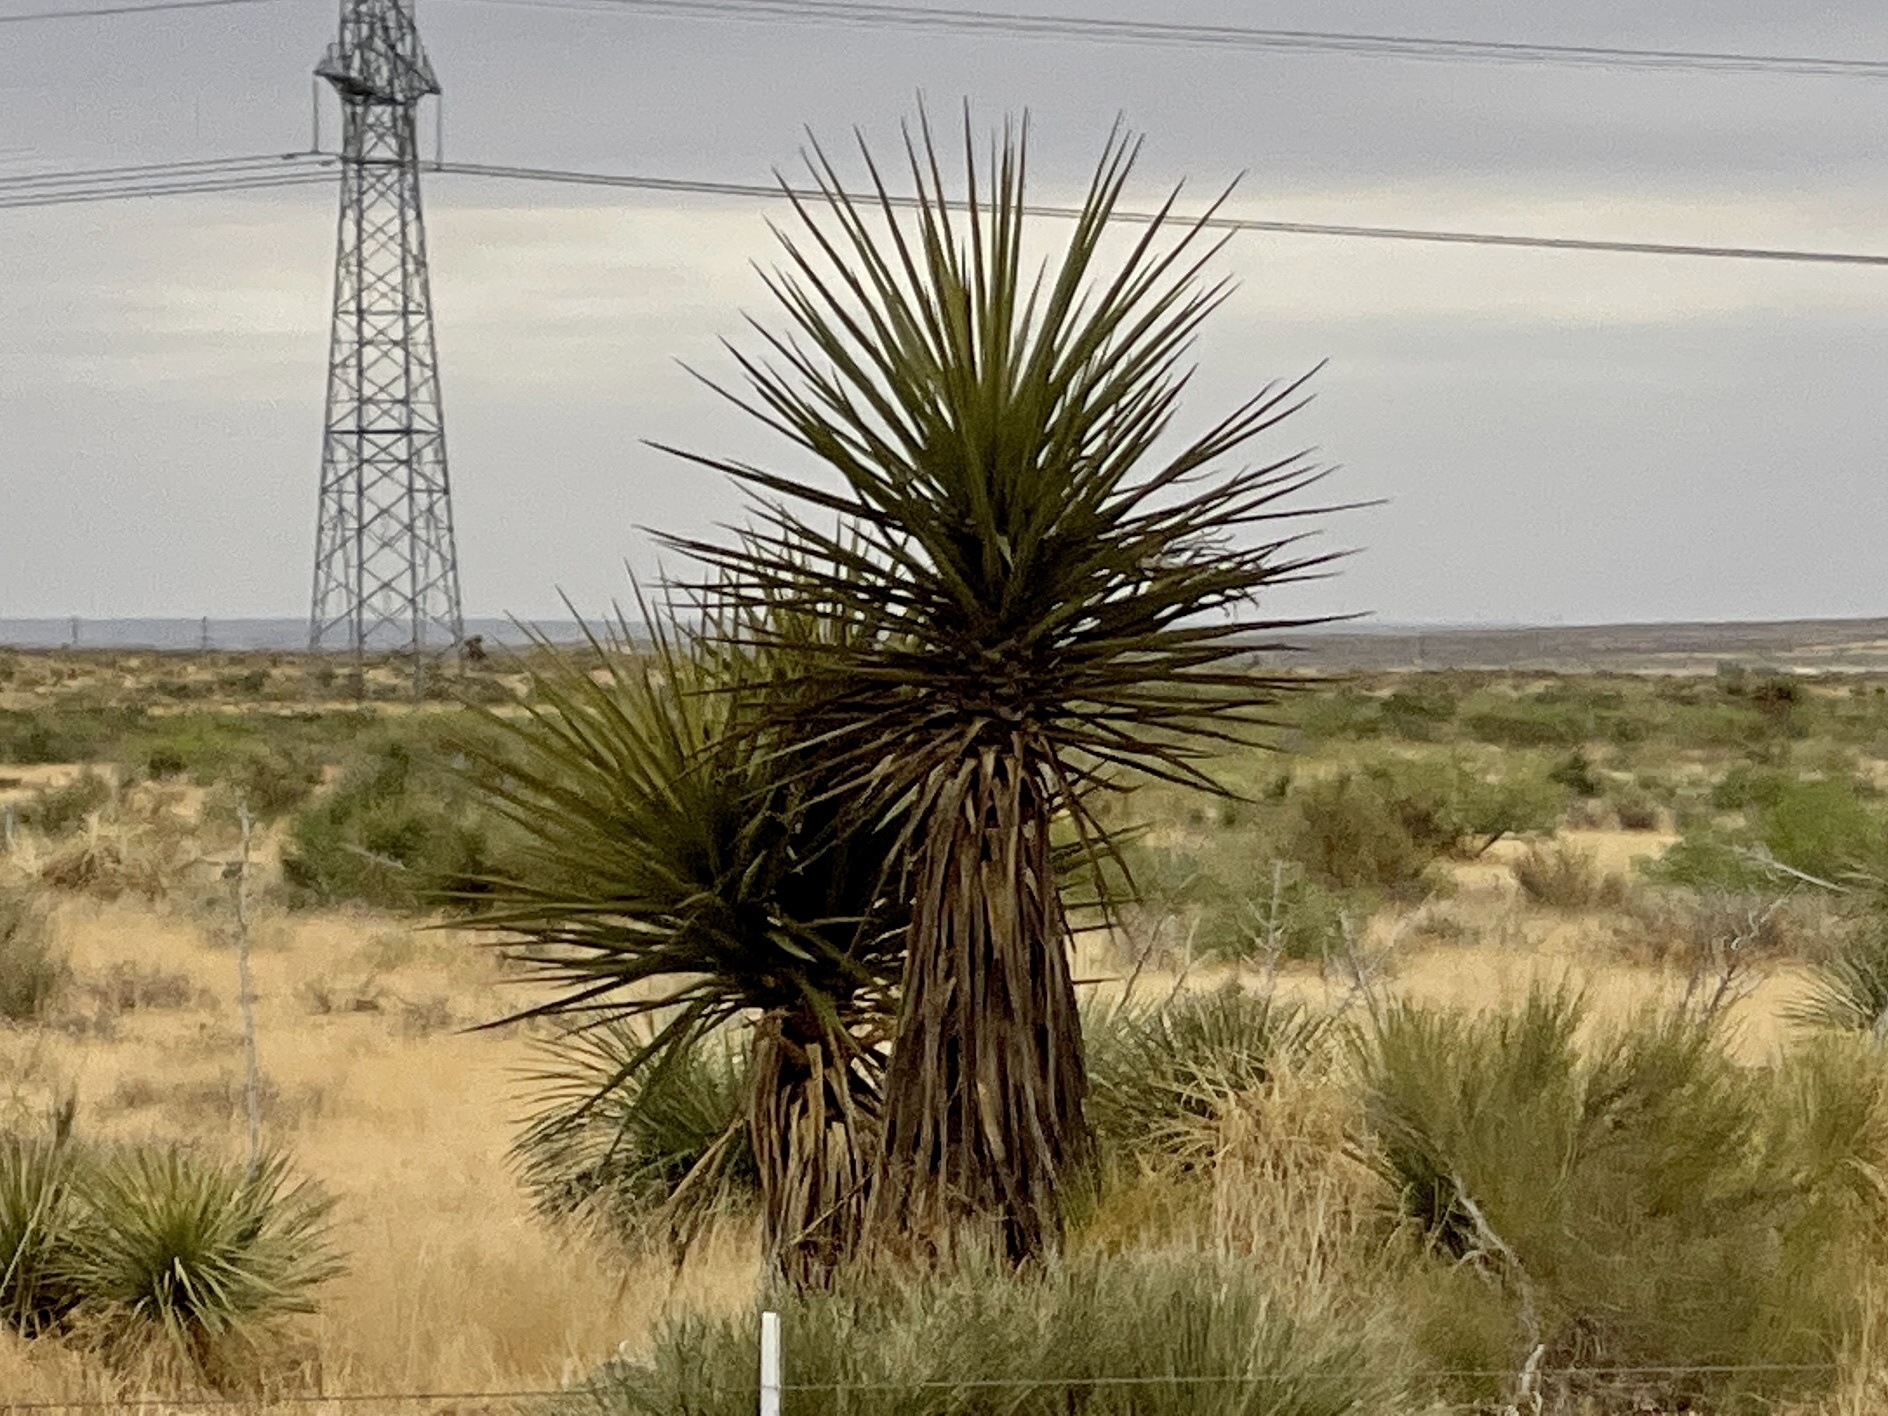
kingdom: Plantae
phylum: Tracheophyta
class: Liliopsida
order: Asparagales
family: Asparagaceae
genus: Yucca
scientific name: Yucca treculiana
